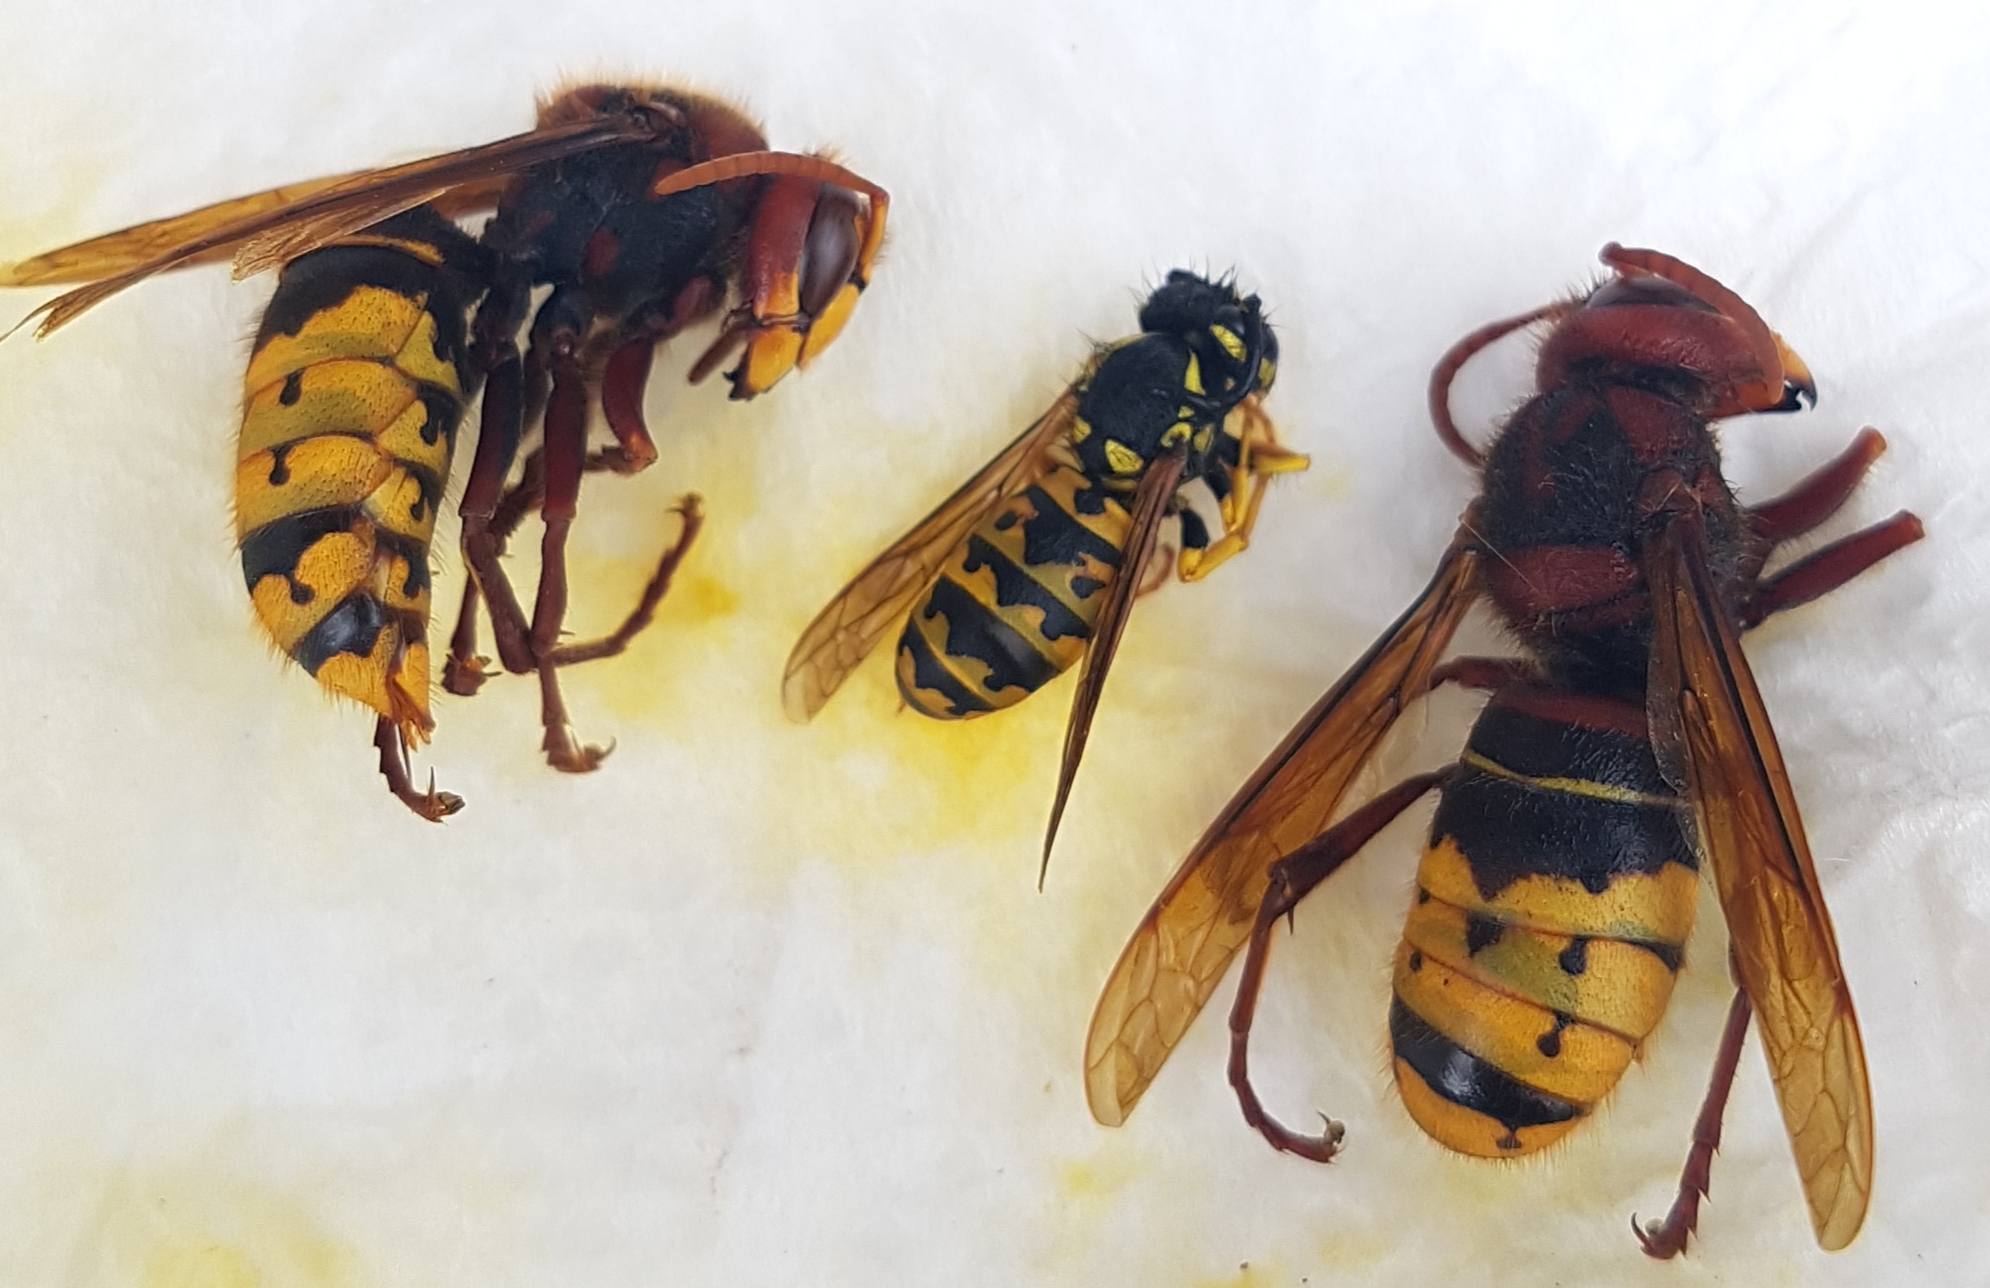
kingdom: Animalia
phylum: Arthropoda
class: Insecta
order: Hymenoptera
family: Vespidae
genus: Vespa
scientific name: Vespa crabro
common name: Hornet
